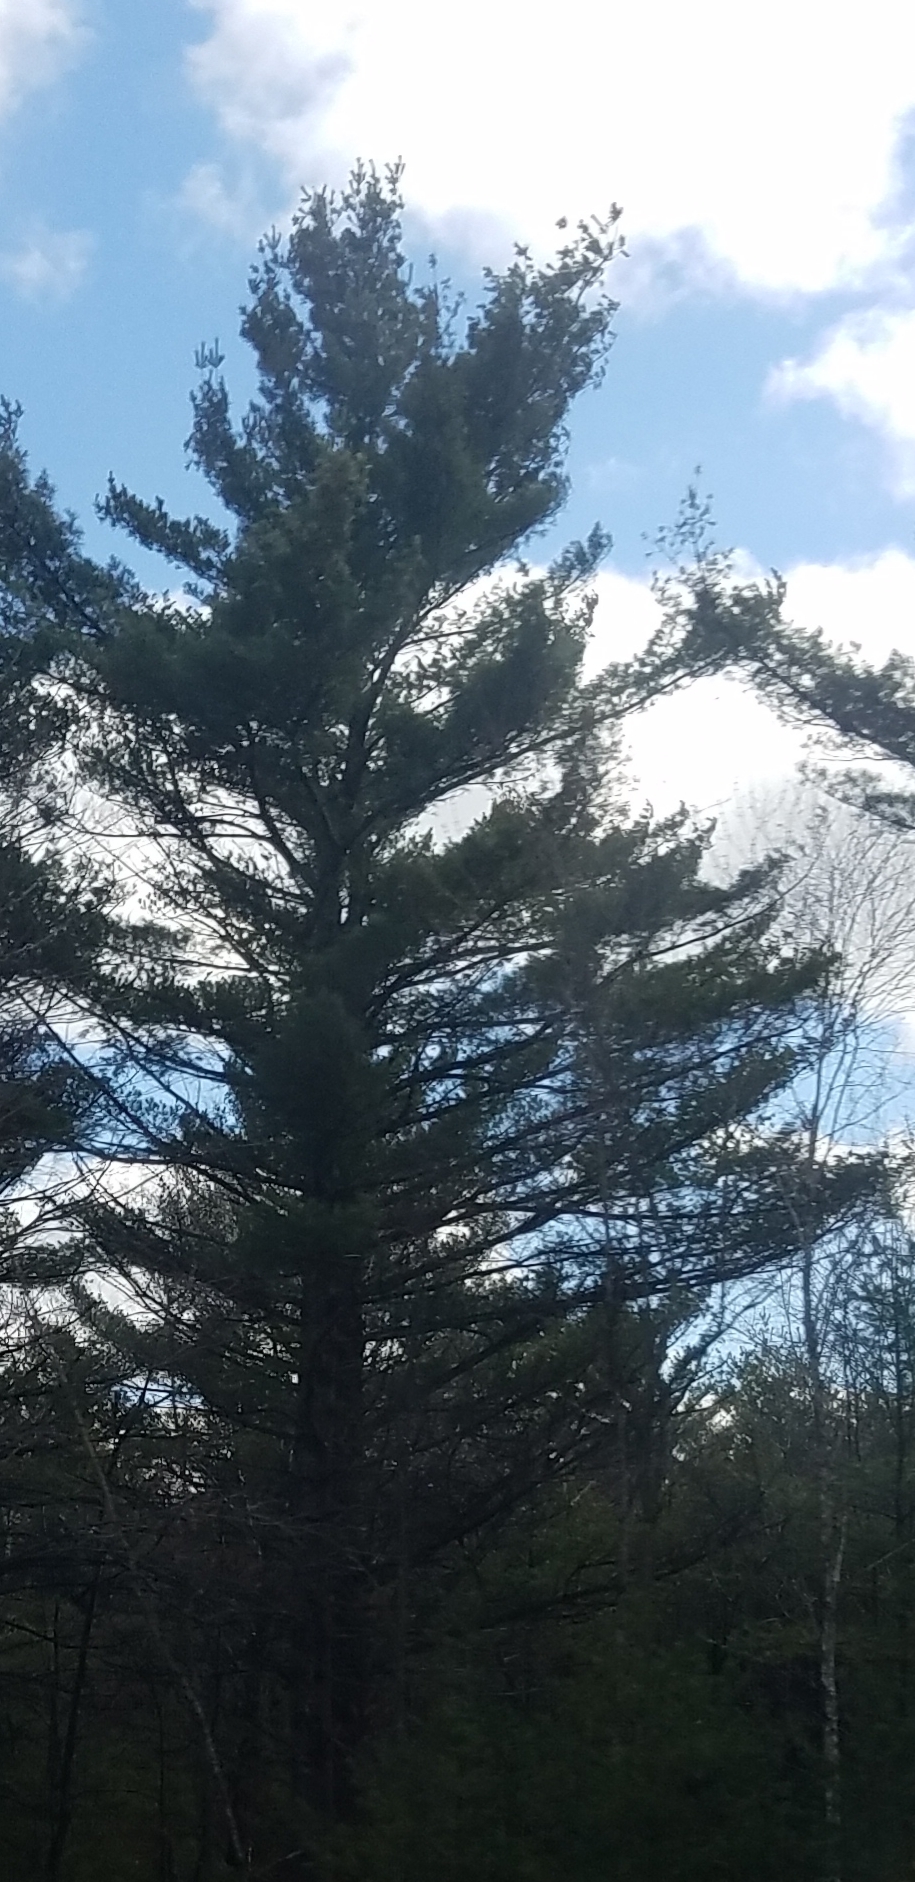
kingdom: Plantae
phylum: Tracheophyta
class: Pinopsida
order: Pinales
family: Pinaceae
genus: Pinus
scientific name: Pinus strobus
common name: Weymouth pine
